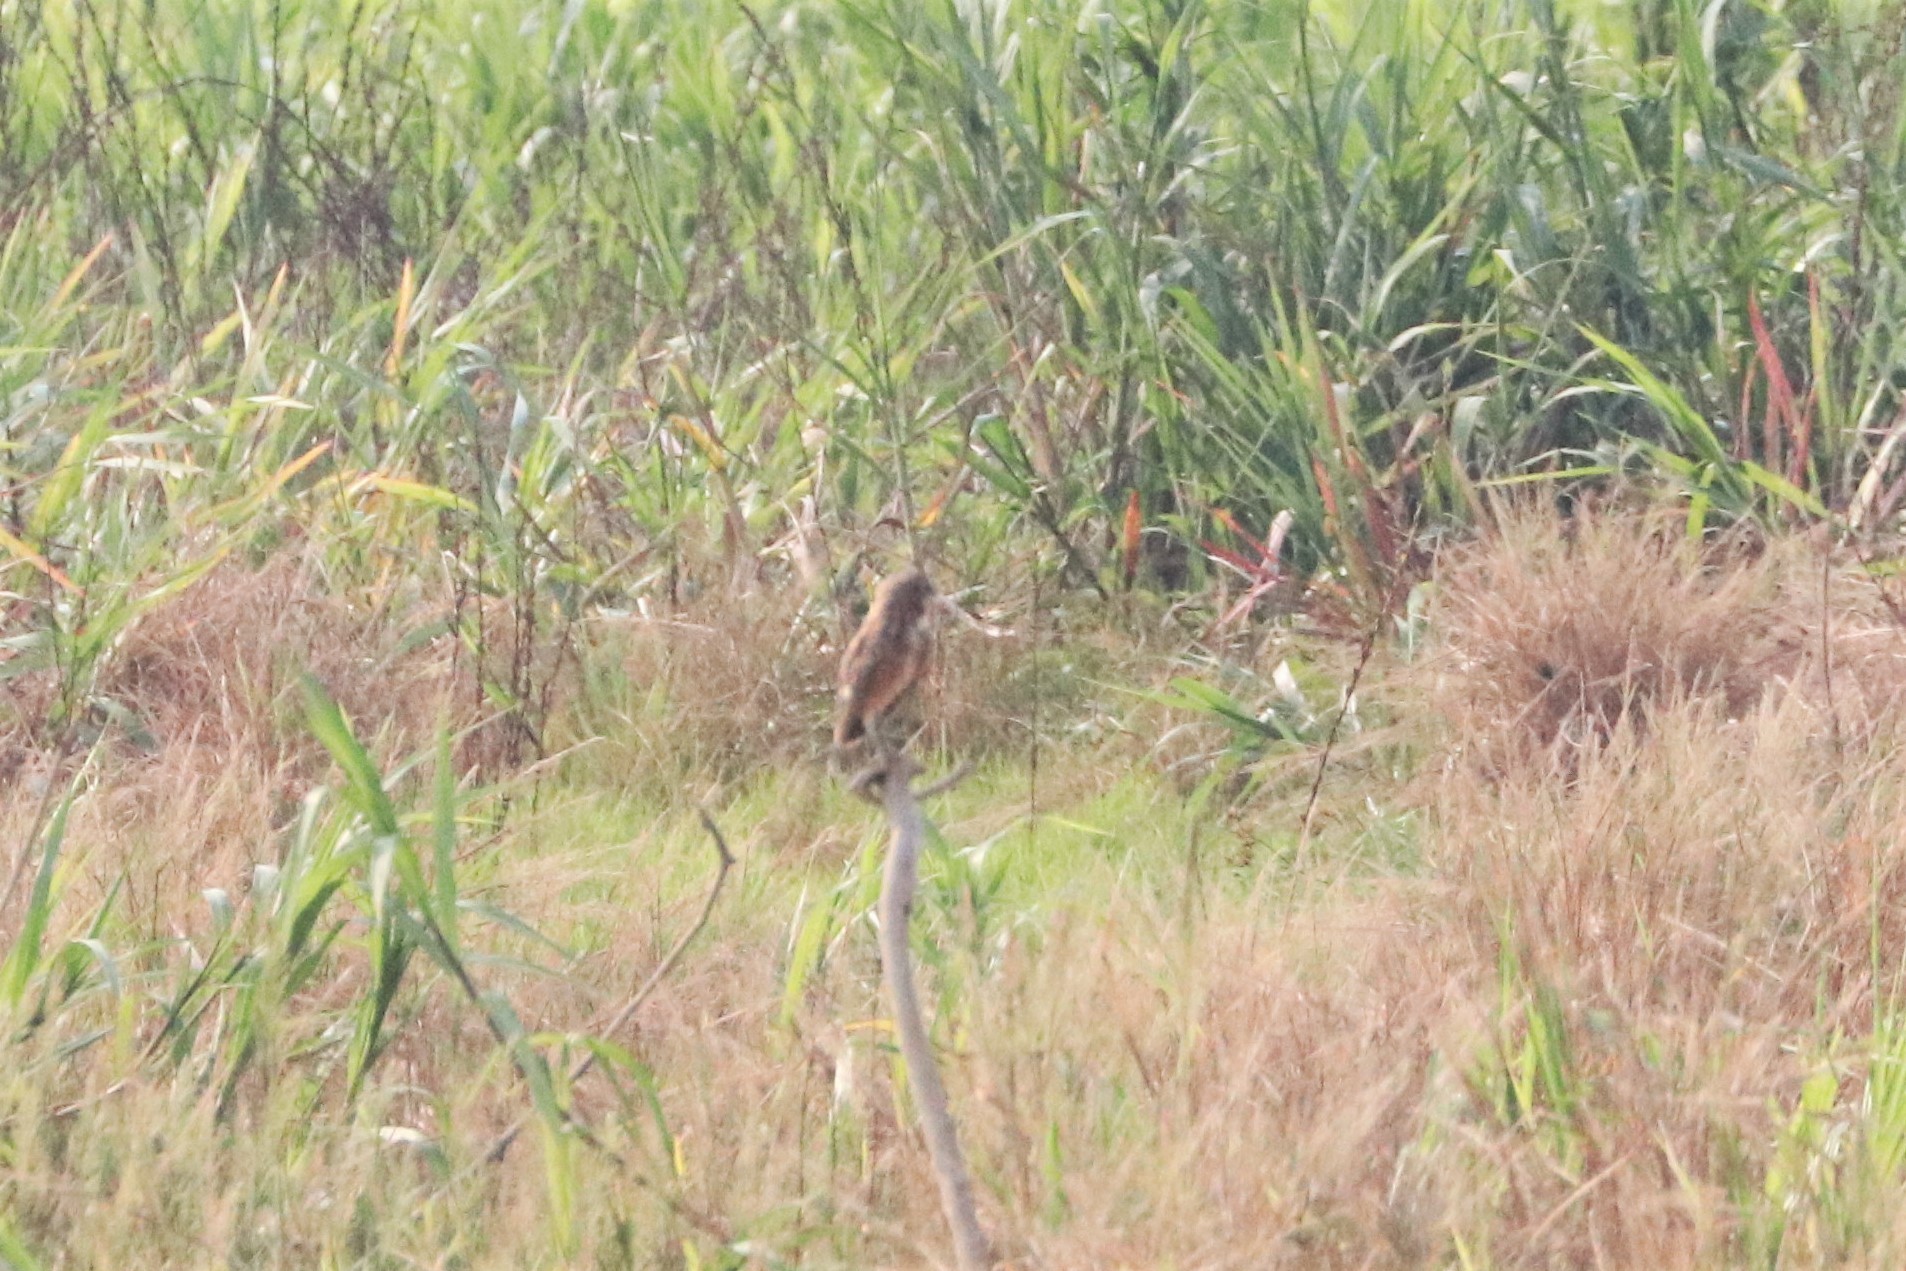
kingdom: Animalia
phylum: Chordata
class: Aves
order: Strigiformes
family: Strigidae
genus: Athene
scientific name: Athene cunicularia
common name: Burrowing owl
